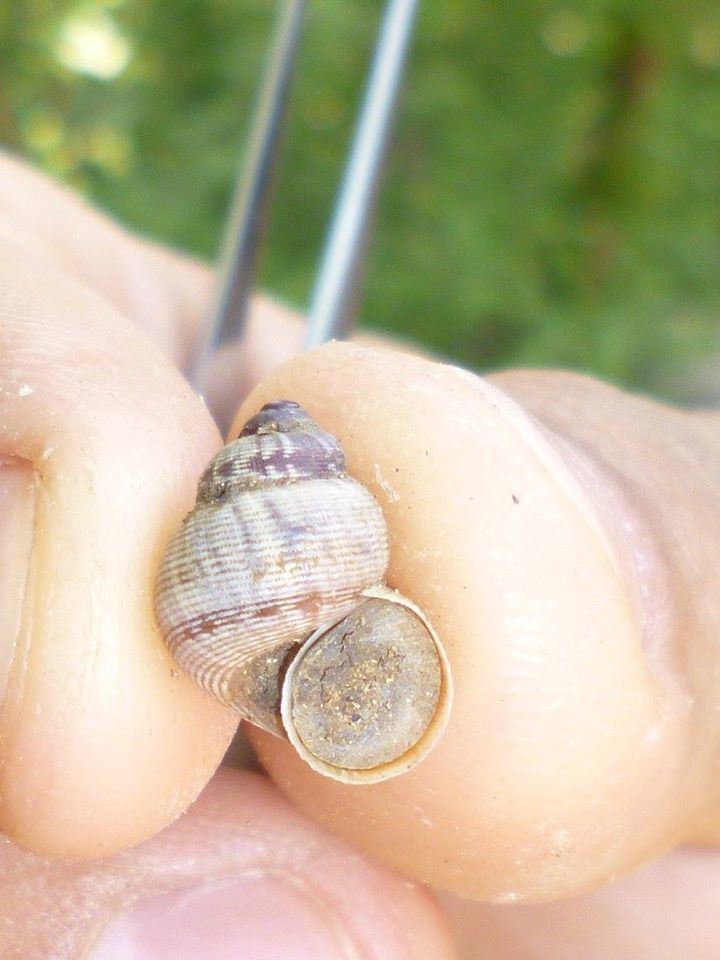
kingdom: Animalia
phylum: Mollusca
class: Gastropoda
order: Littorinimorpha
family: Pomatiidae
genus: Pomatias
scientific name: Pomatias elegans
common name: Red-mouthed snail
